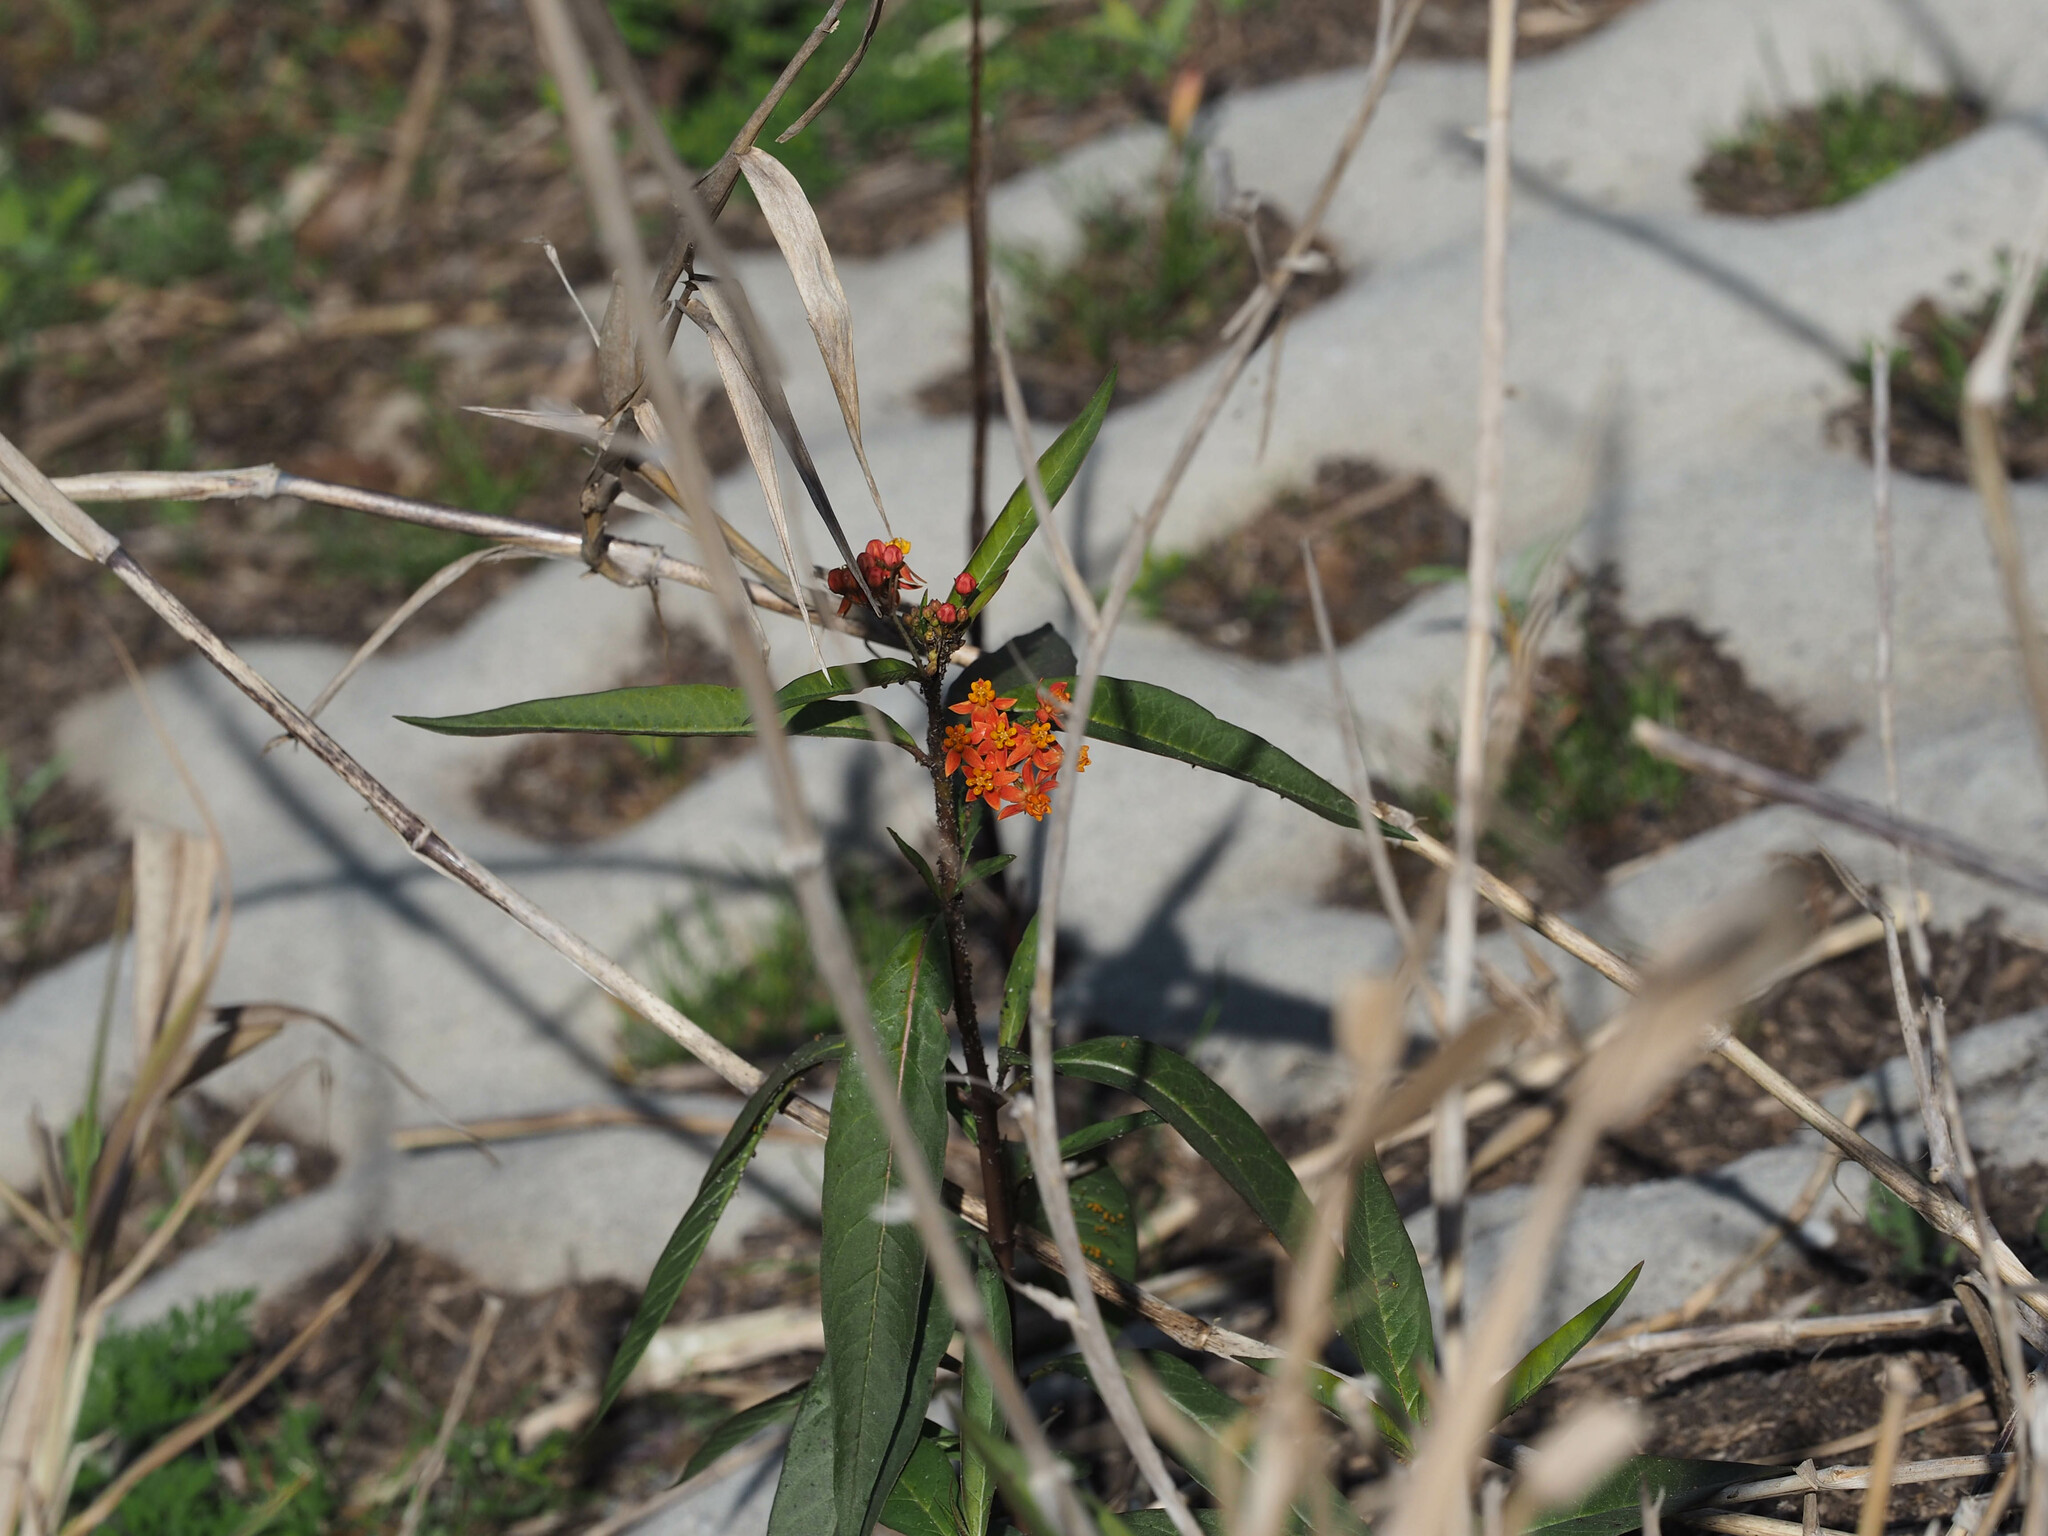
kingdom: Plantae
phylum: Tracheophyta
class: Magnoliopsida
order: Gentianales
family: Apocynaceae
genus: Asclepias
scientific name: Asclepias curassavica
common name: Bloodflower
